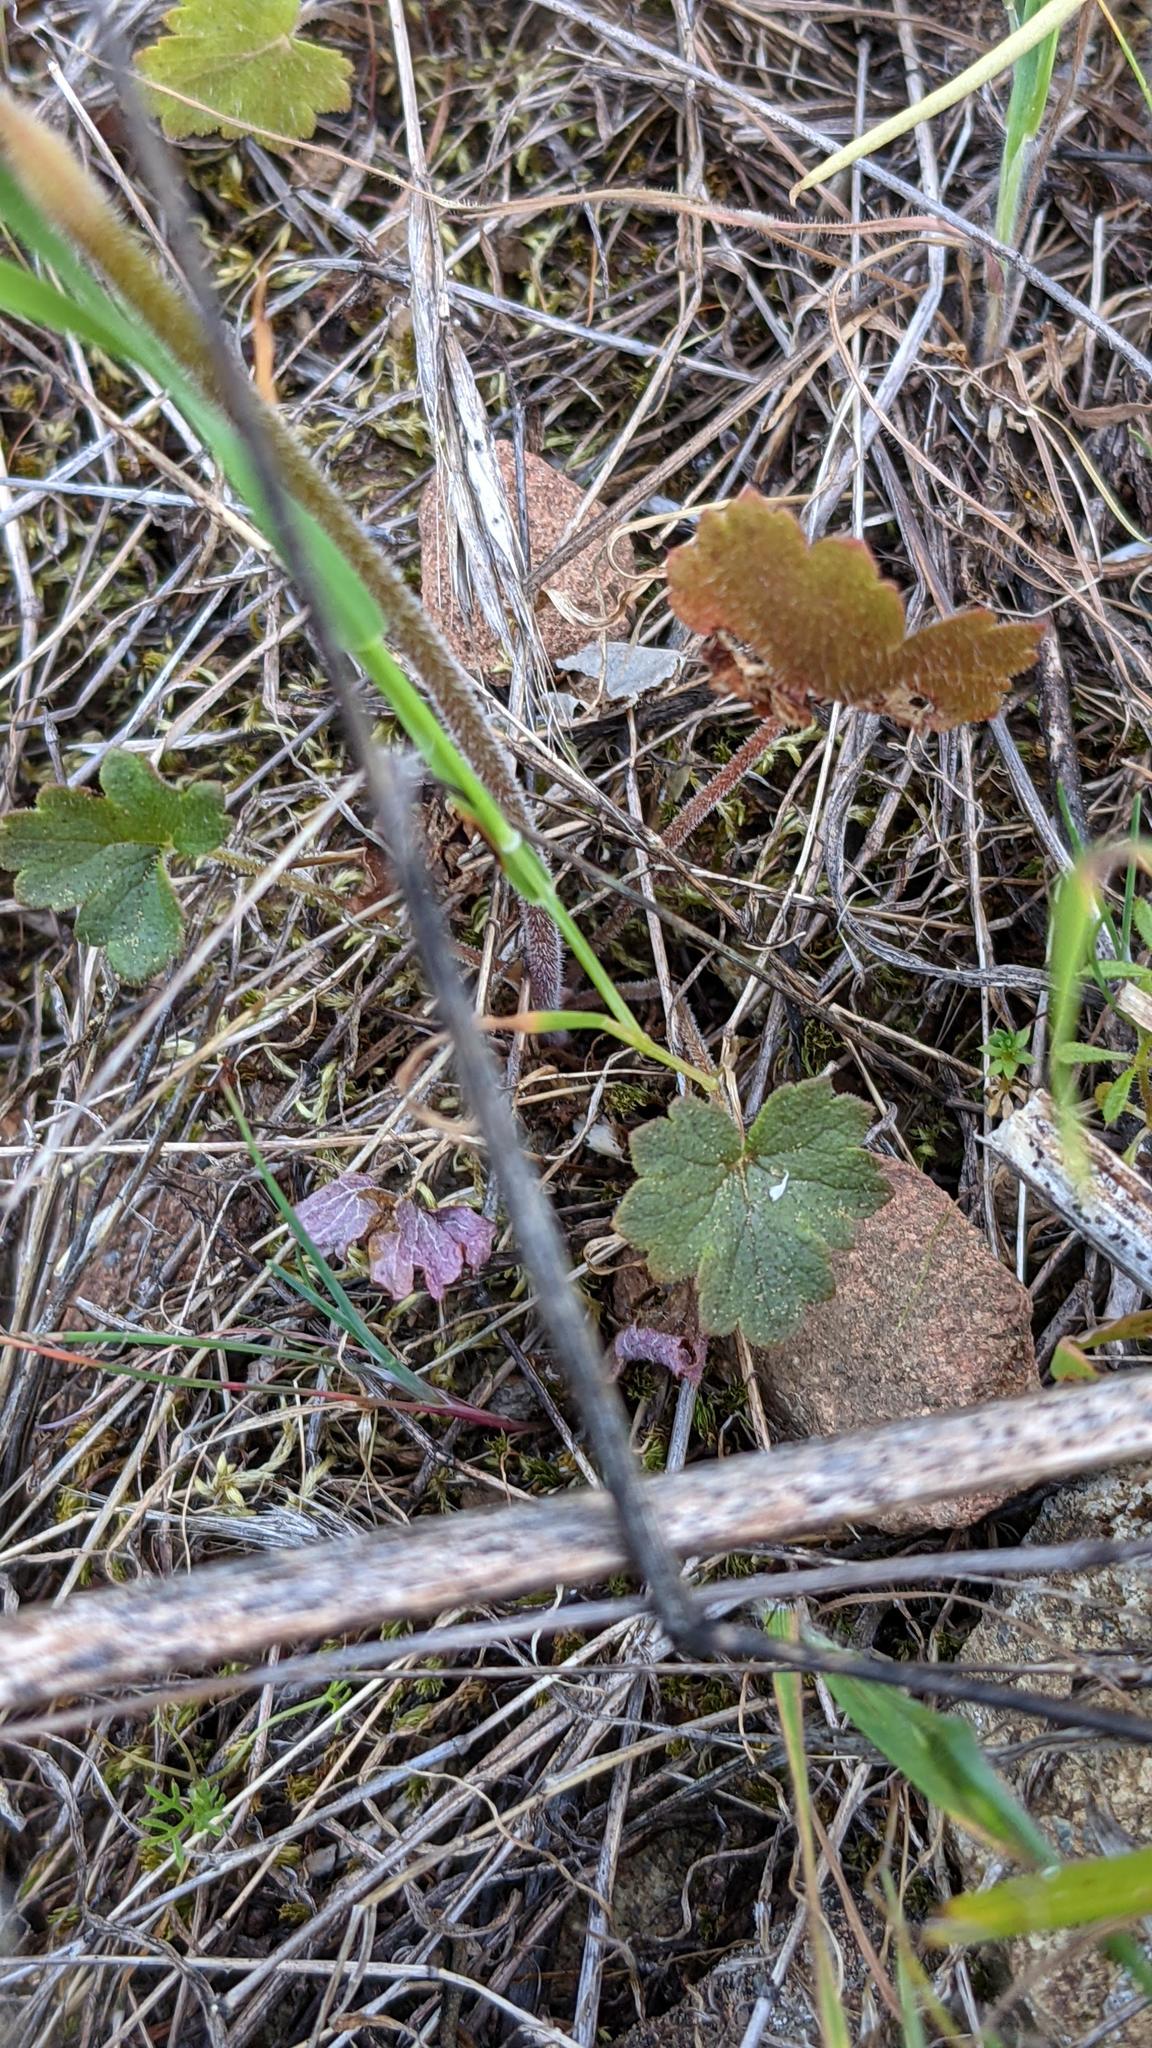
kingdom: Plantae
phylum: Tracheophyta
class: Magnoliopsida
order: Saxifragales
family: Saxifragaceae
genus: Lithophragma
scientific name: Lithophragma affine
